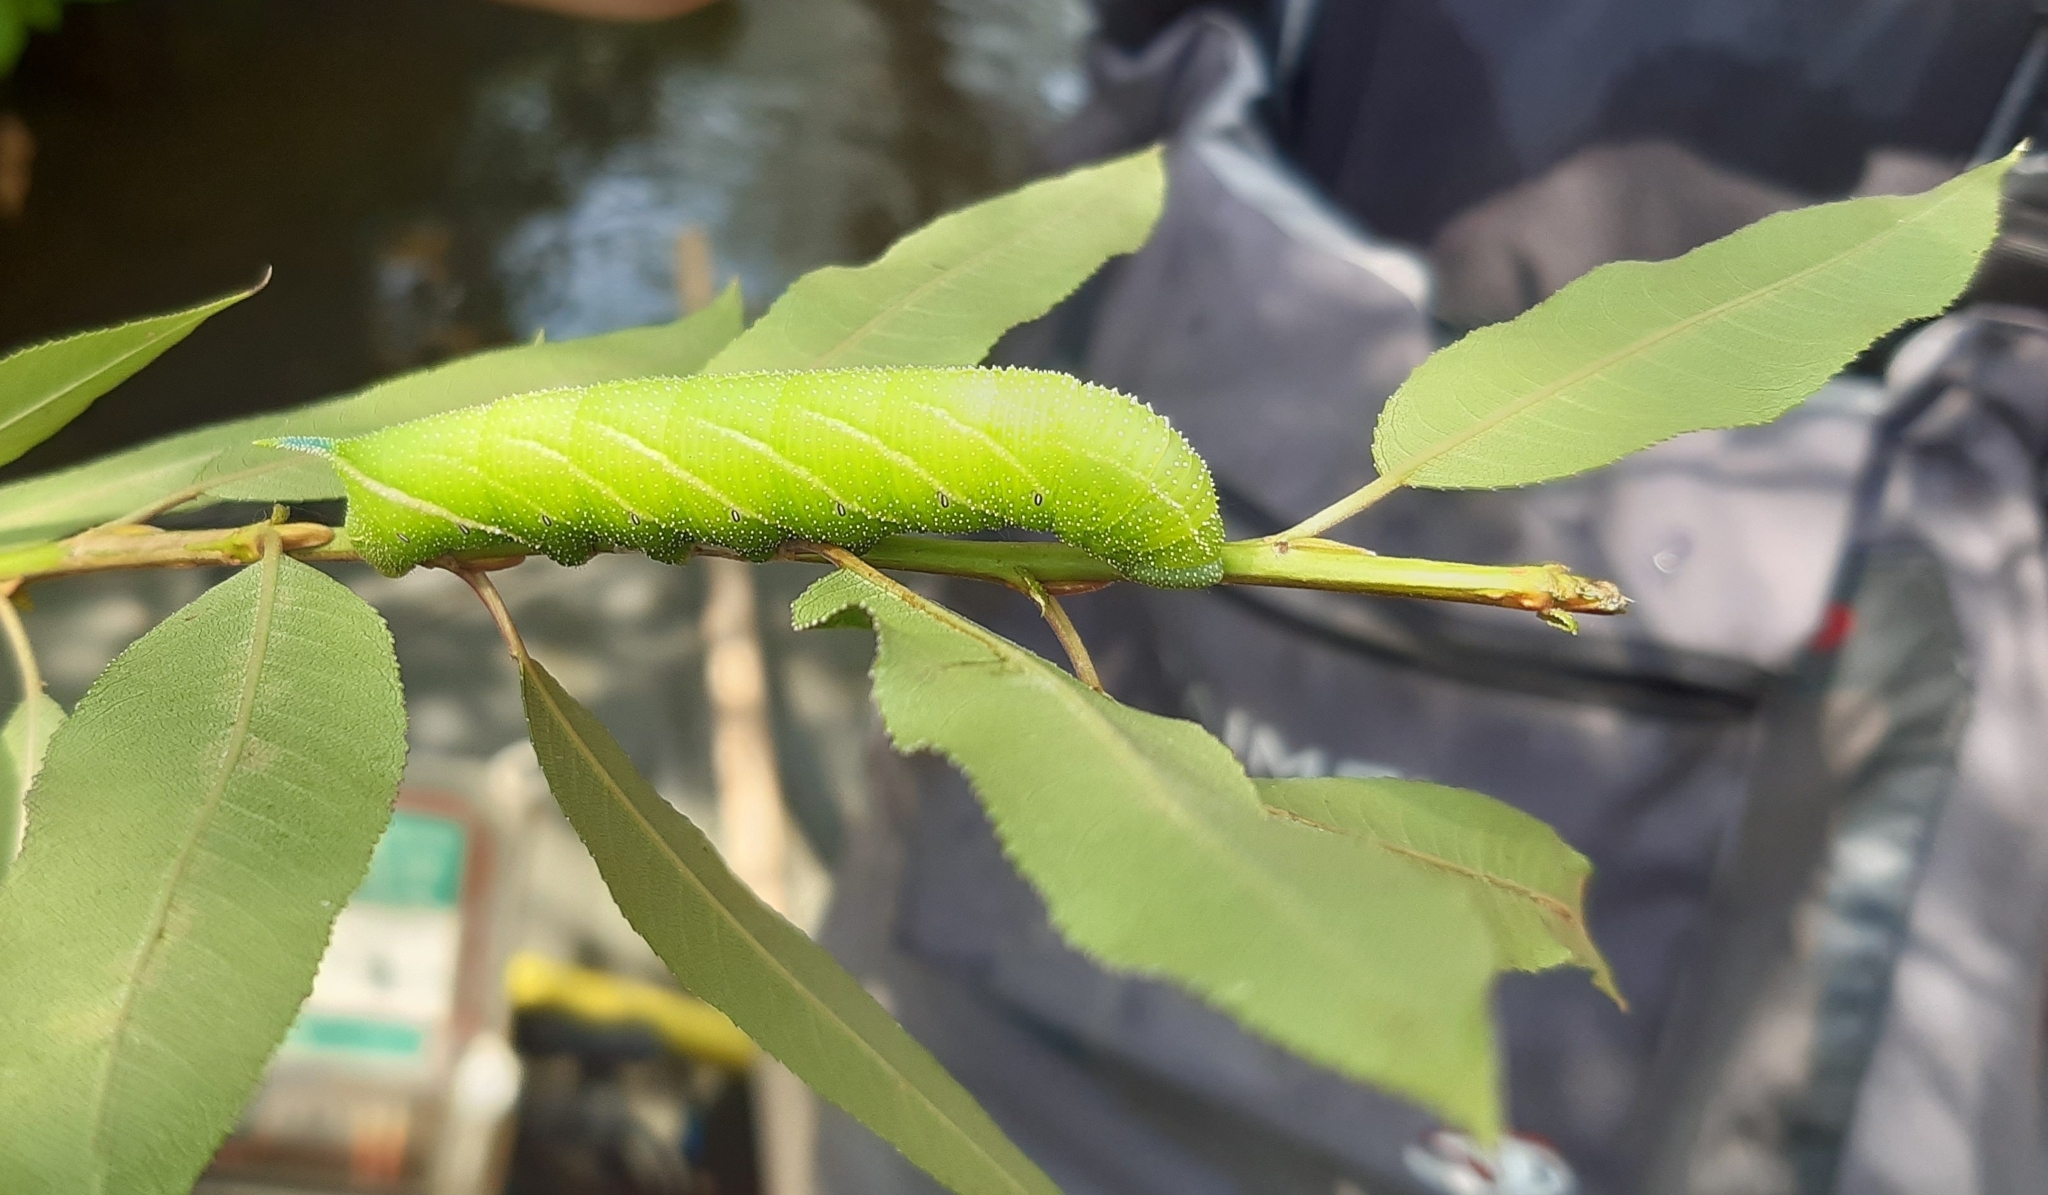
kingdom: Animalia
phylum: Arthropoda
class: Insecta
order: Lepidoptera
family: Sphingidae
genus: Smerinthus
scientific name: Smerinthus ocellata
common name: Eyed hawk-moth
